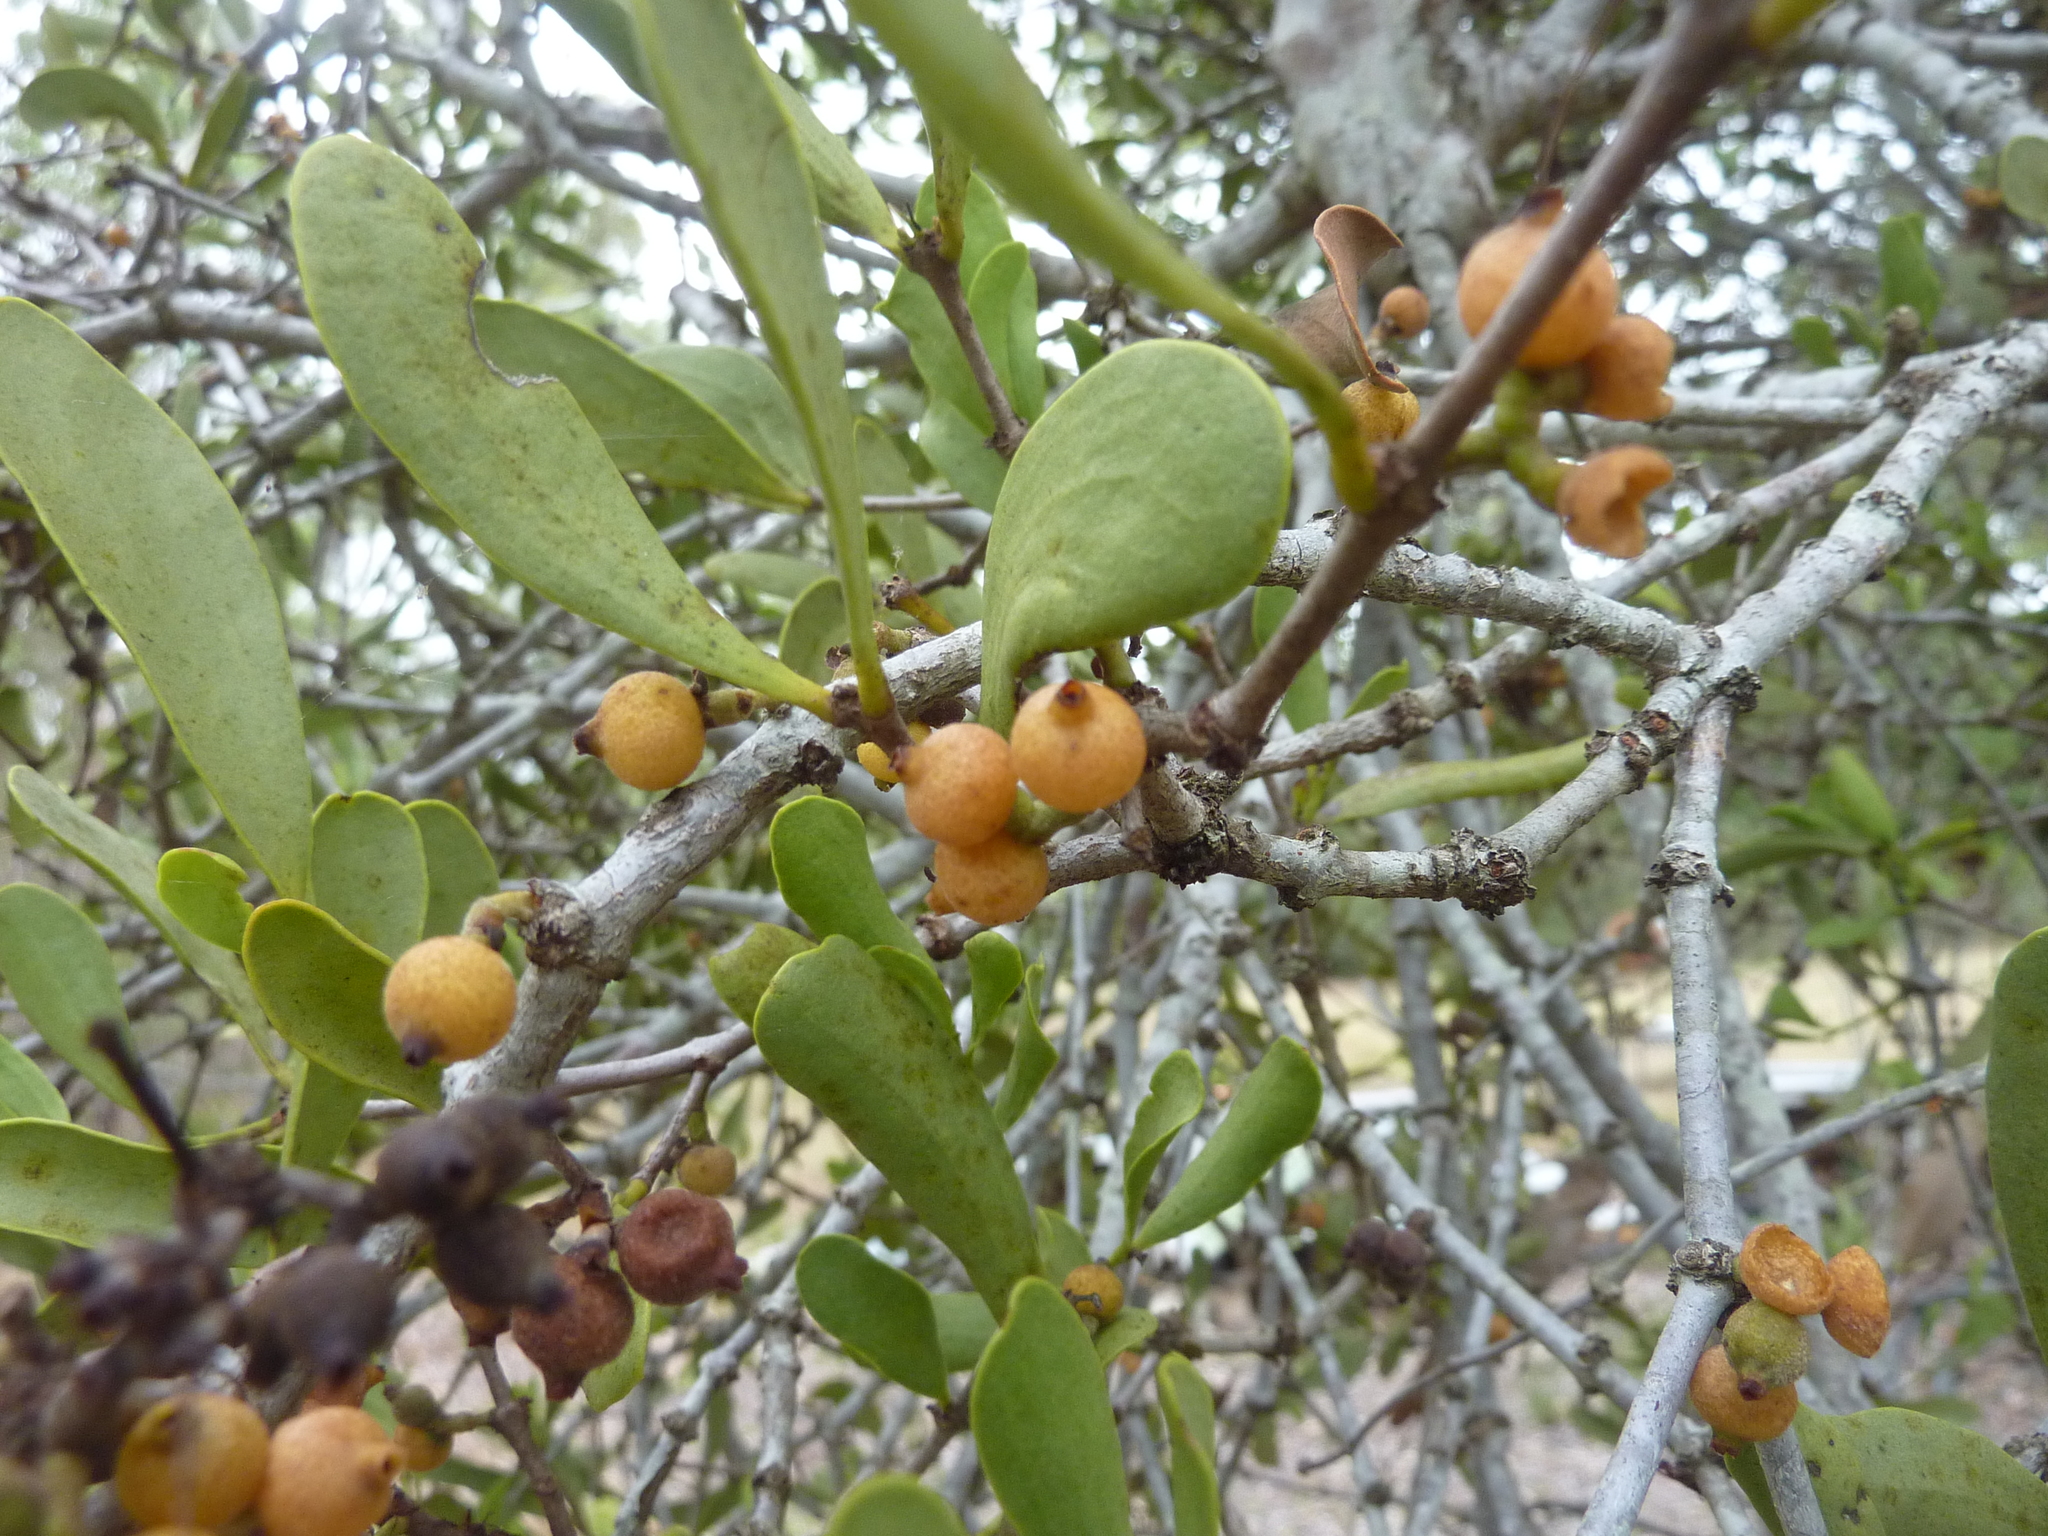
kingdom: Plantae
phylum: Tracheophyta
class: Magnoliopsida
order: Santalales
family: Loranthaceae
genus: Amyema
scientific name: Amyema conspicua
